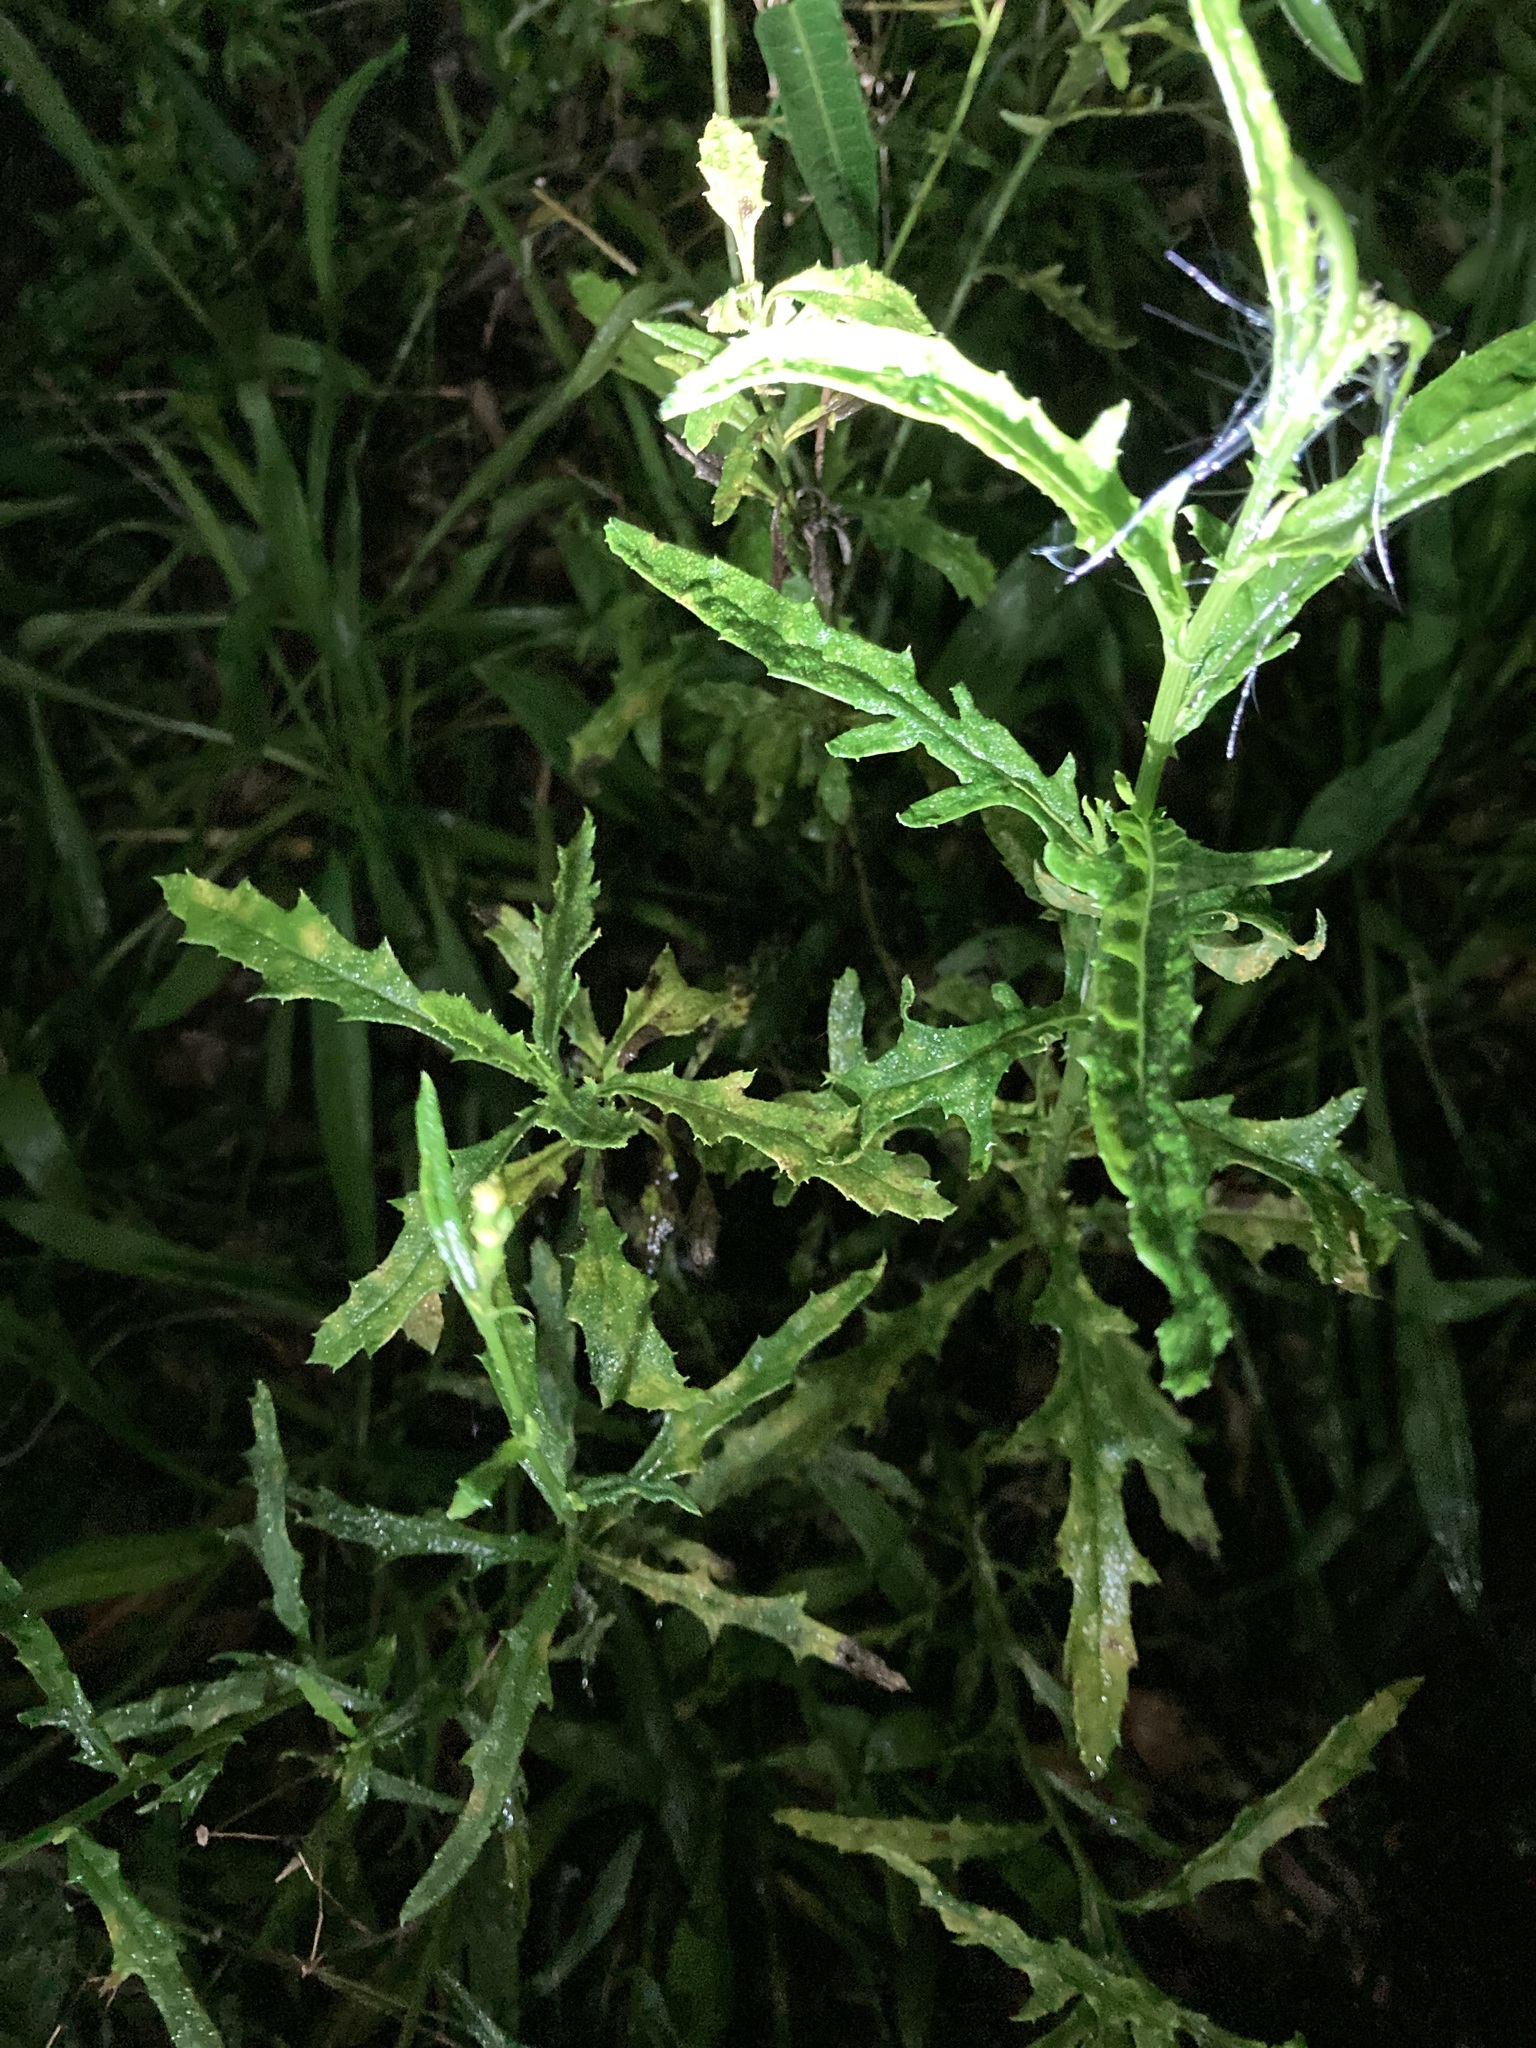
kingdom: Plantae
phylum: Tracheophyta
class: Magnoliopsida
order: Asterales
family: Asteraceae
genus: Senecio
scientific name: Senecio hispidulus
